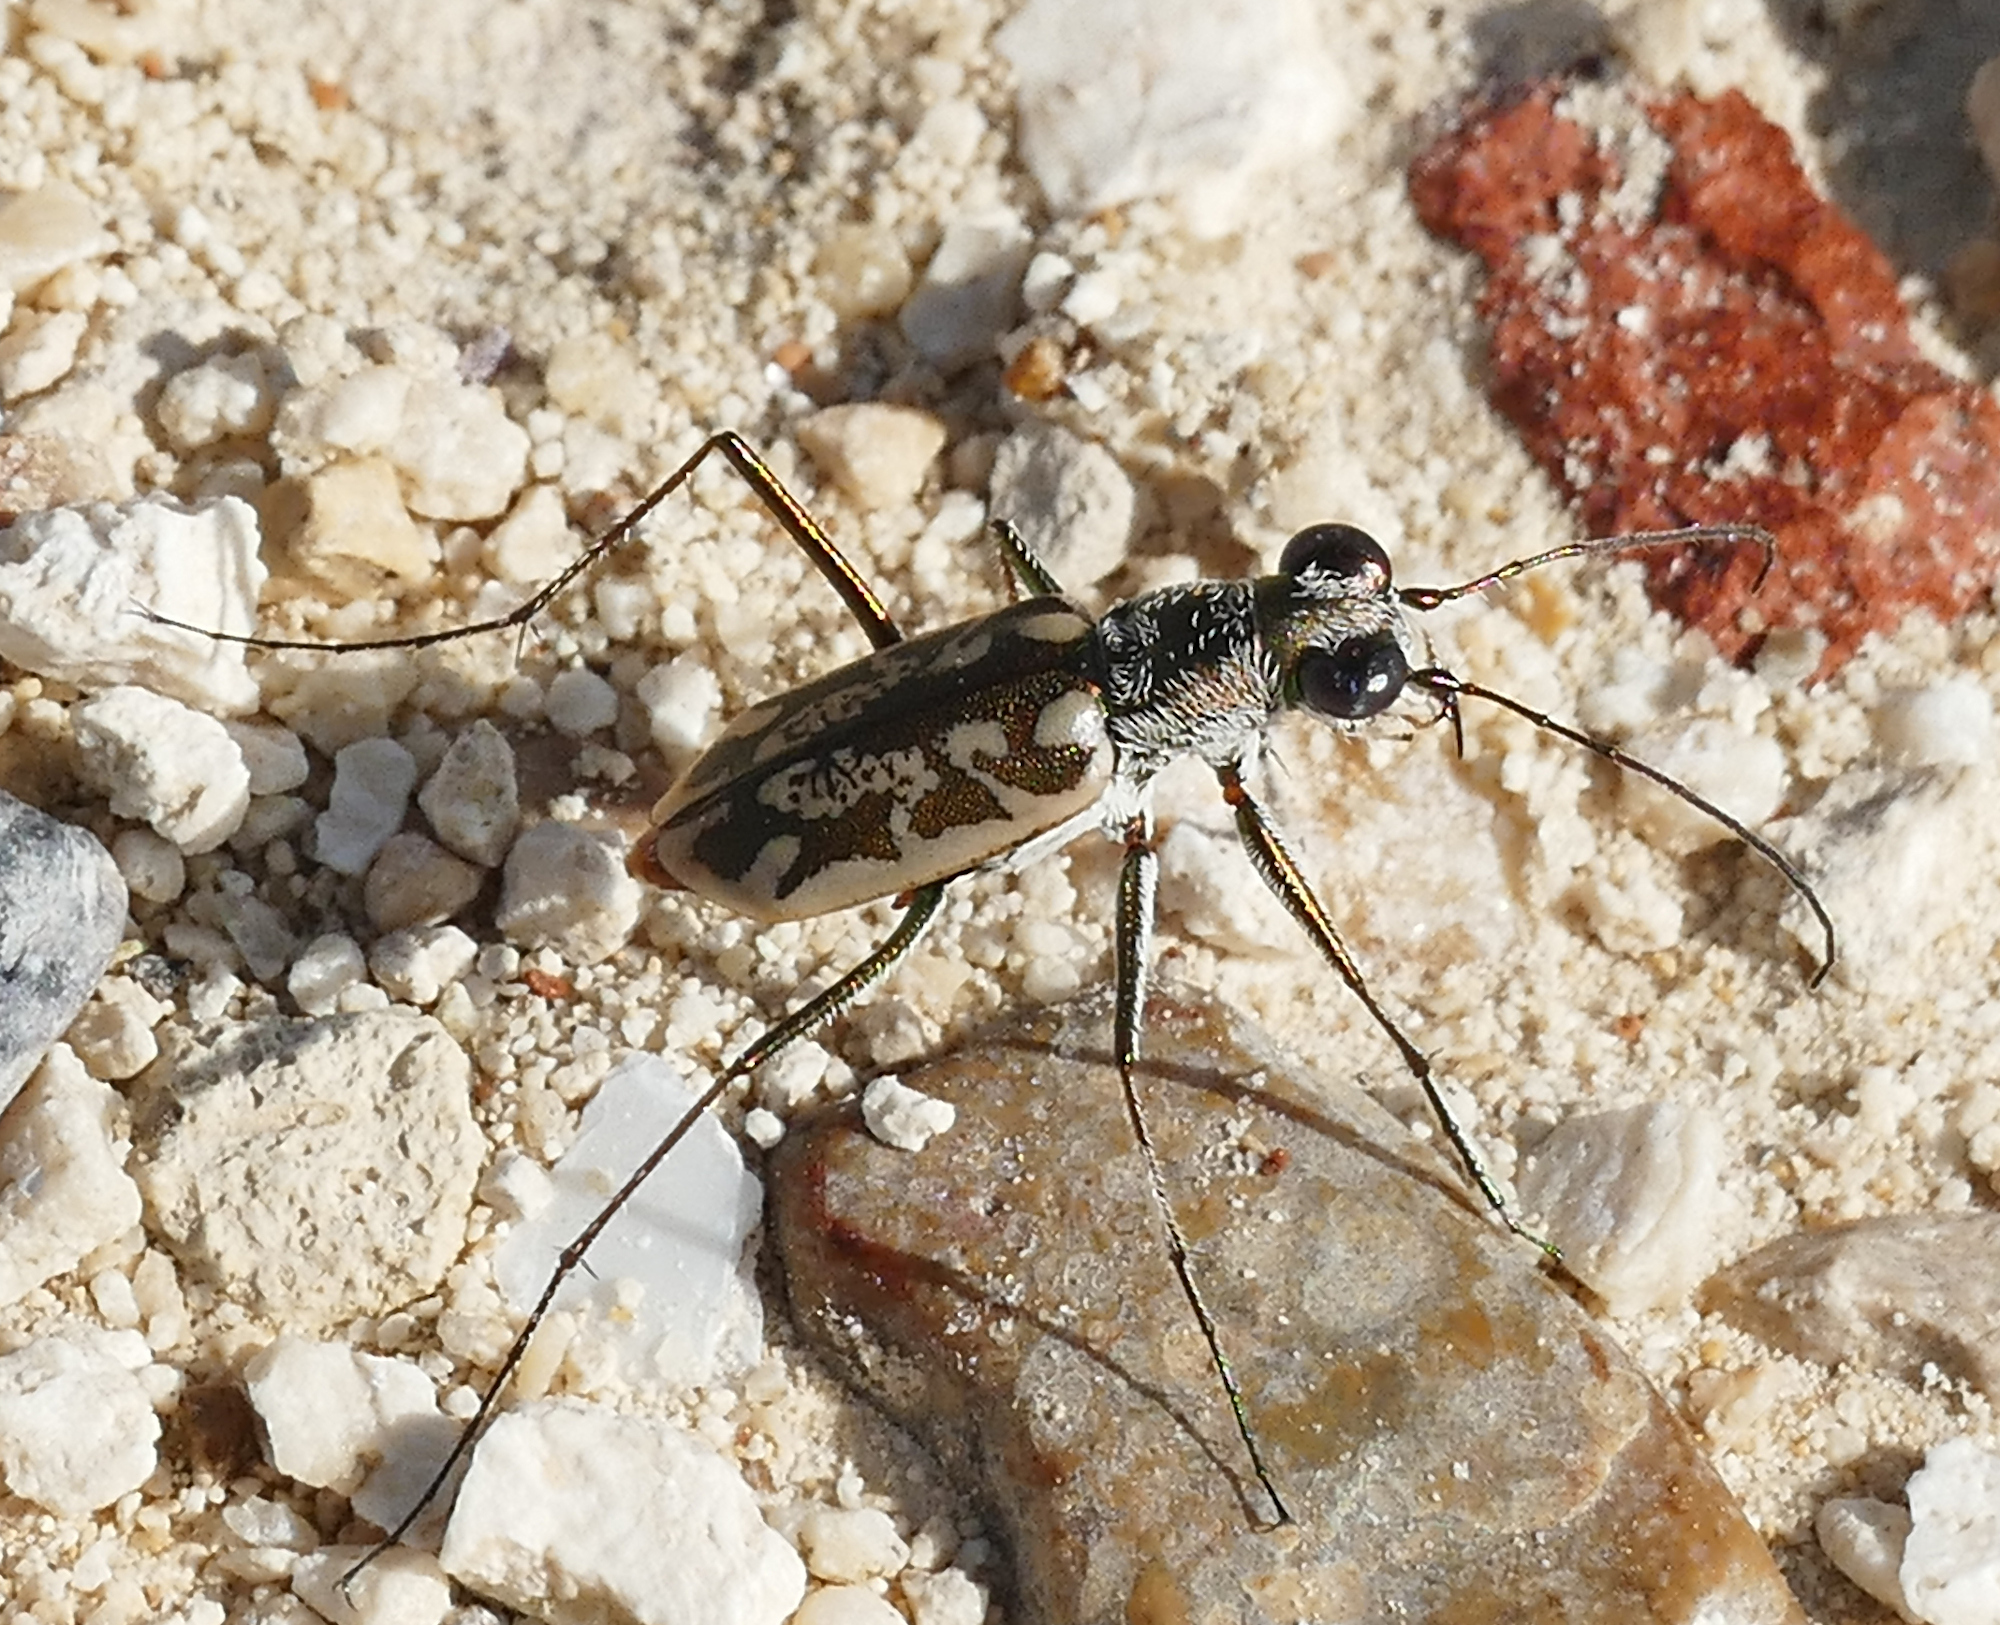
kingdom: Animalia
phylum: Arthropoda
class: Insecta
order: Coleoptera
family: Carabidae
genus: Ellipsoptera
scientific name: Ellipsoptera hamata
